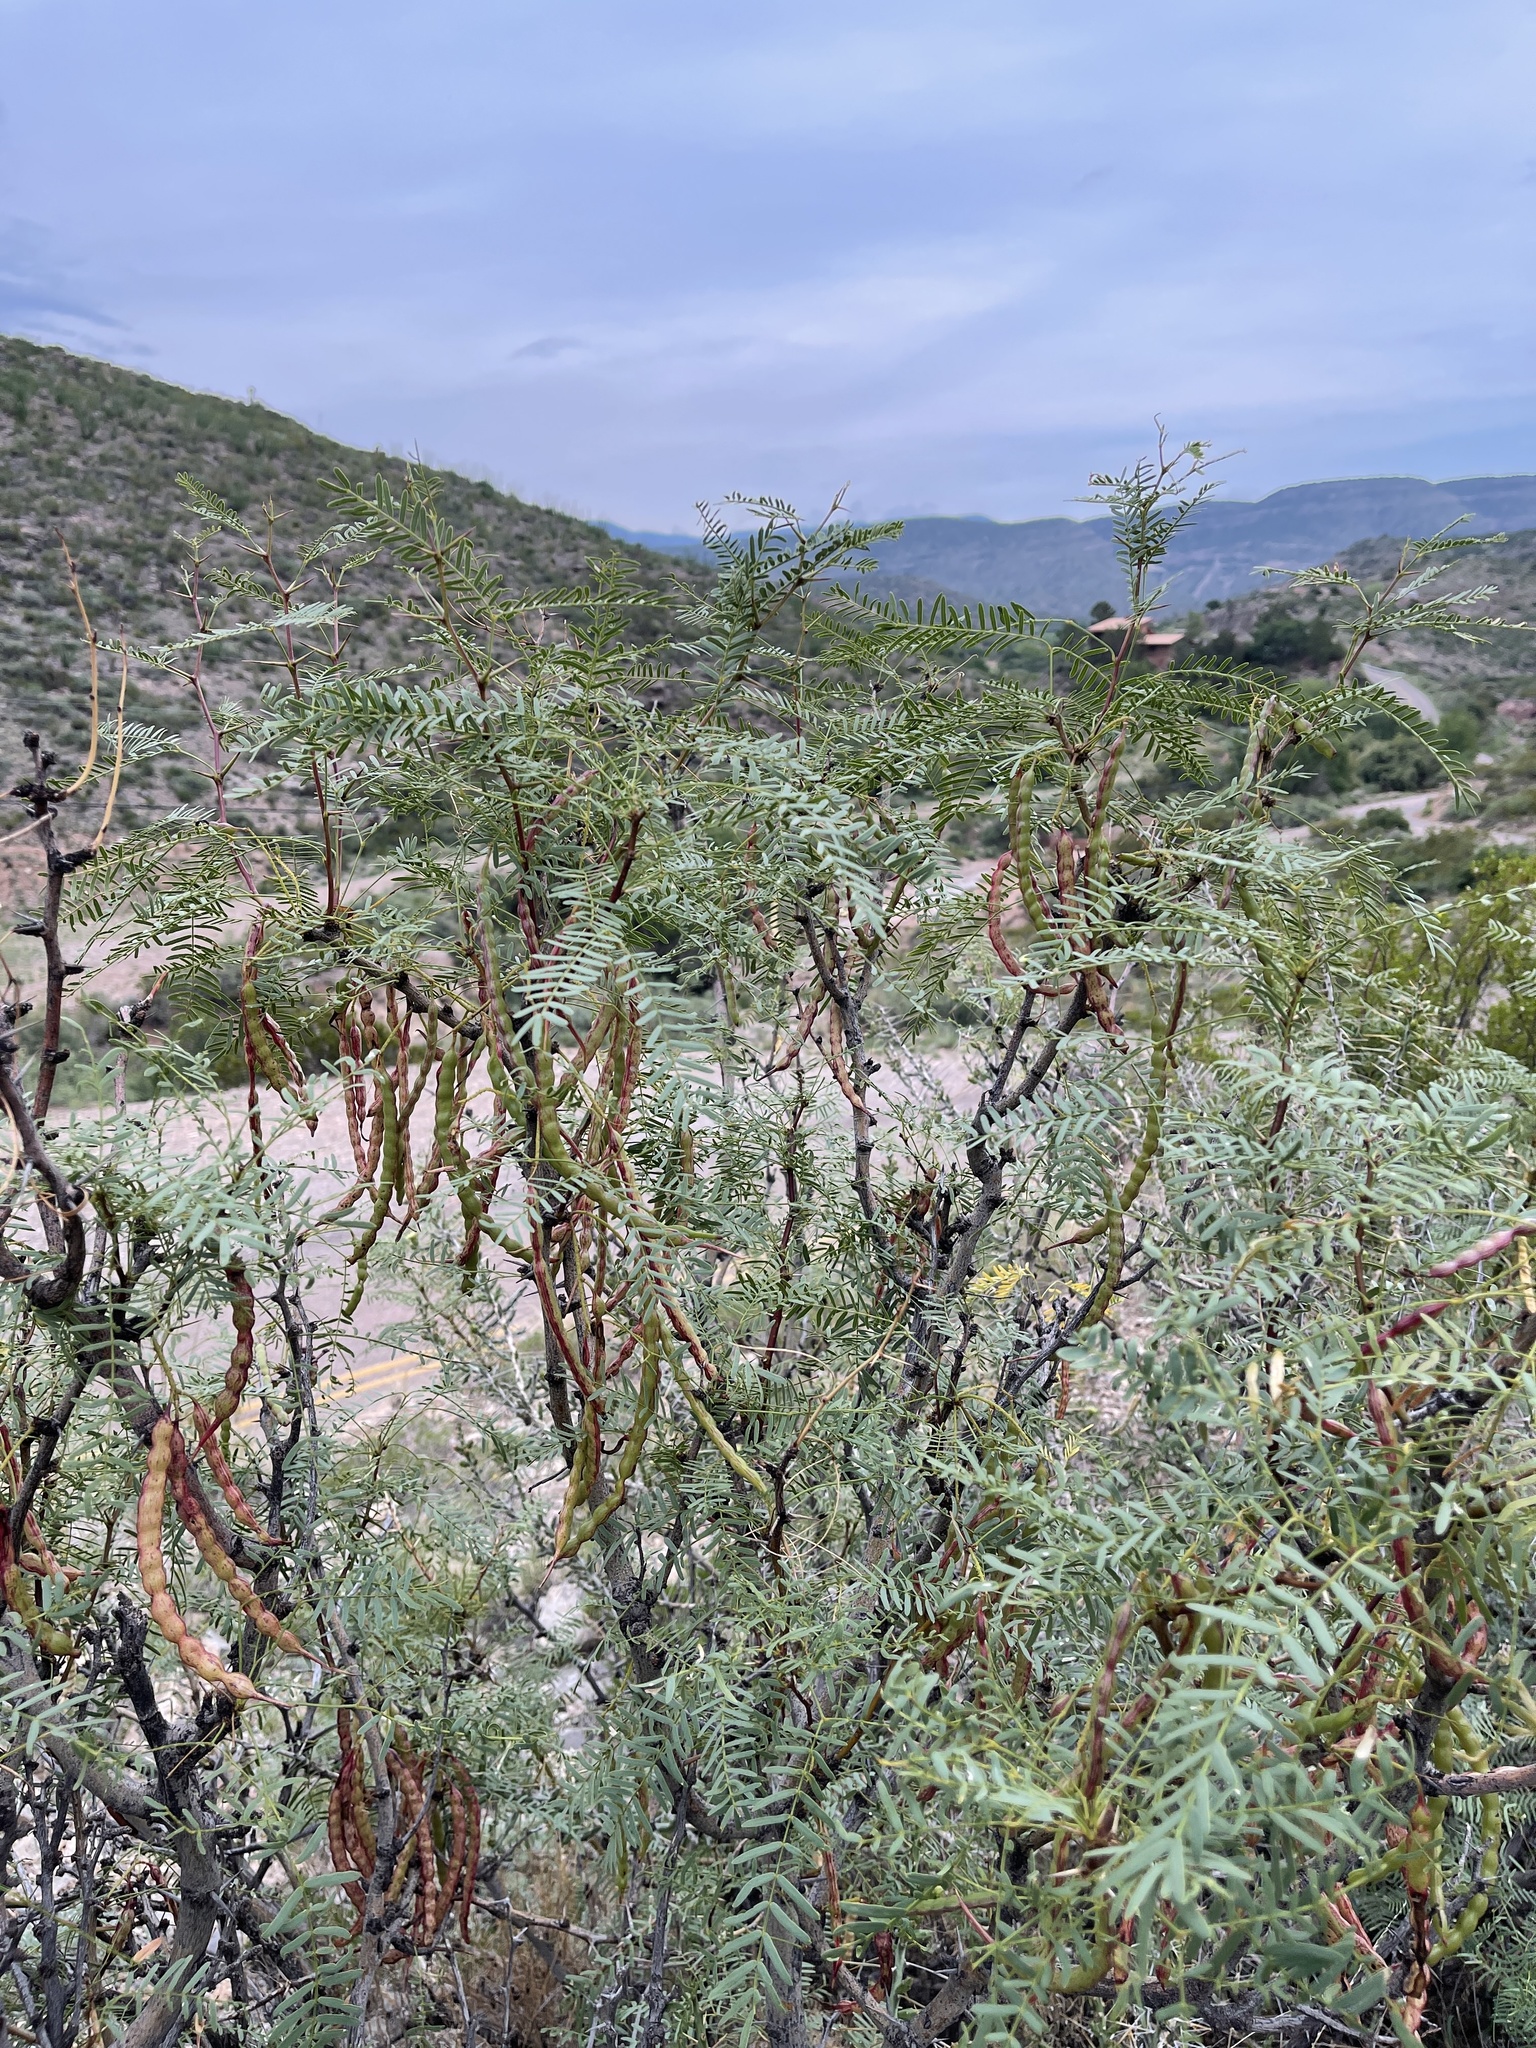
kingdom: Plantae
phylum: Tracheophyta
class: Magnoliopsida
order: Fabales
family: Fabaceae
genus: Prosopis
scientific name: Prosopis glandulosa
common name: Honey mesquite
